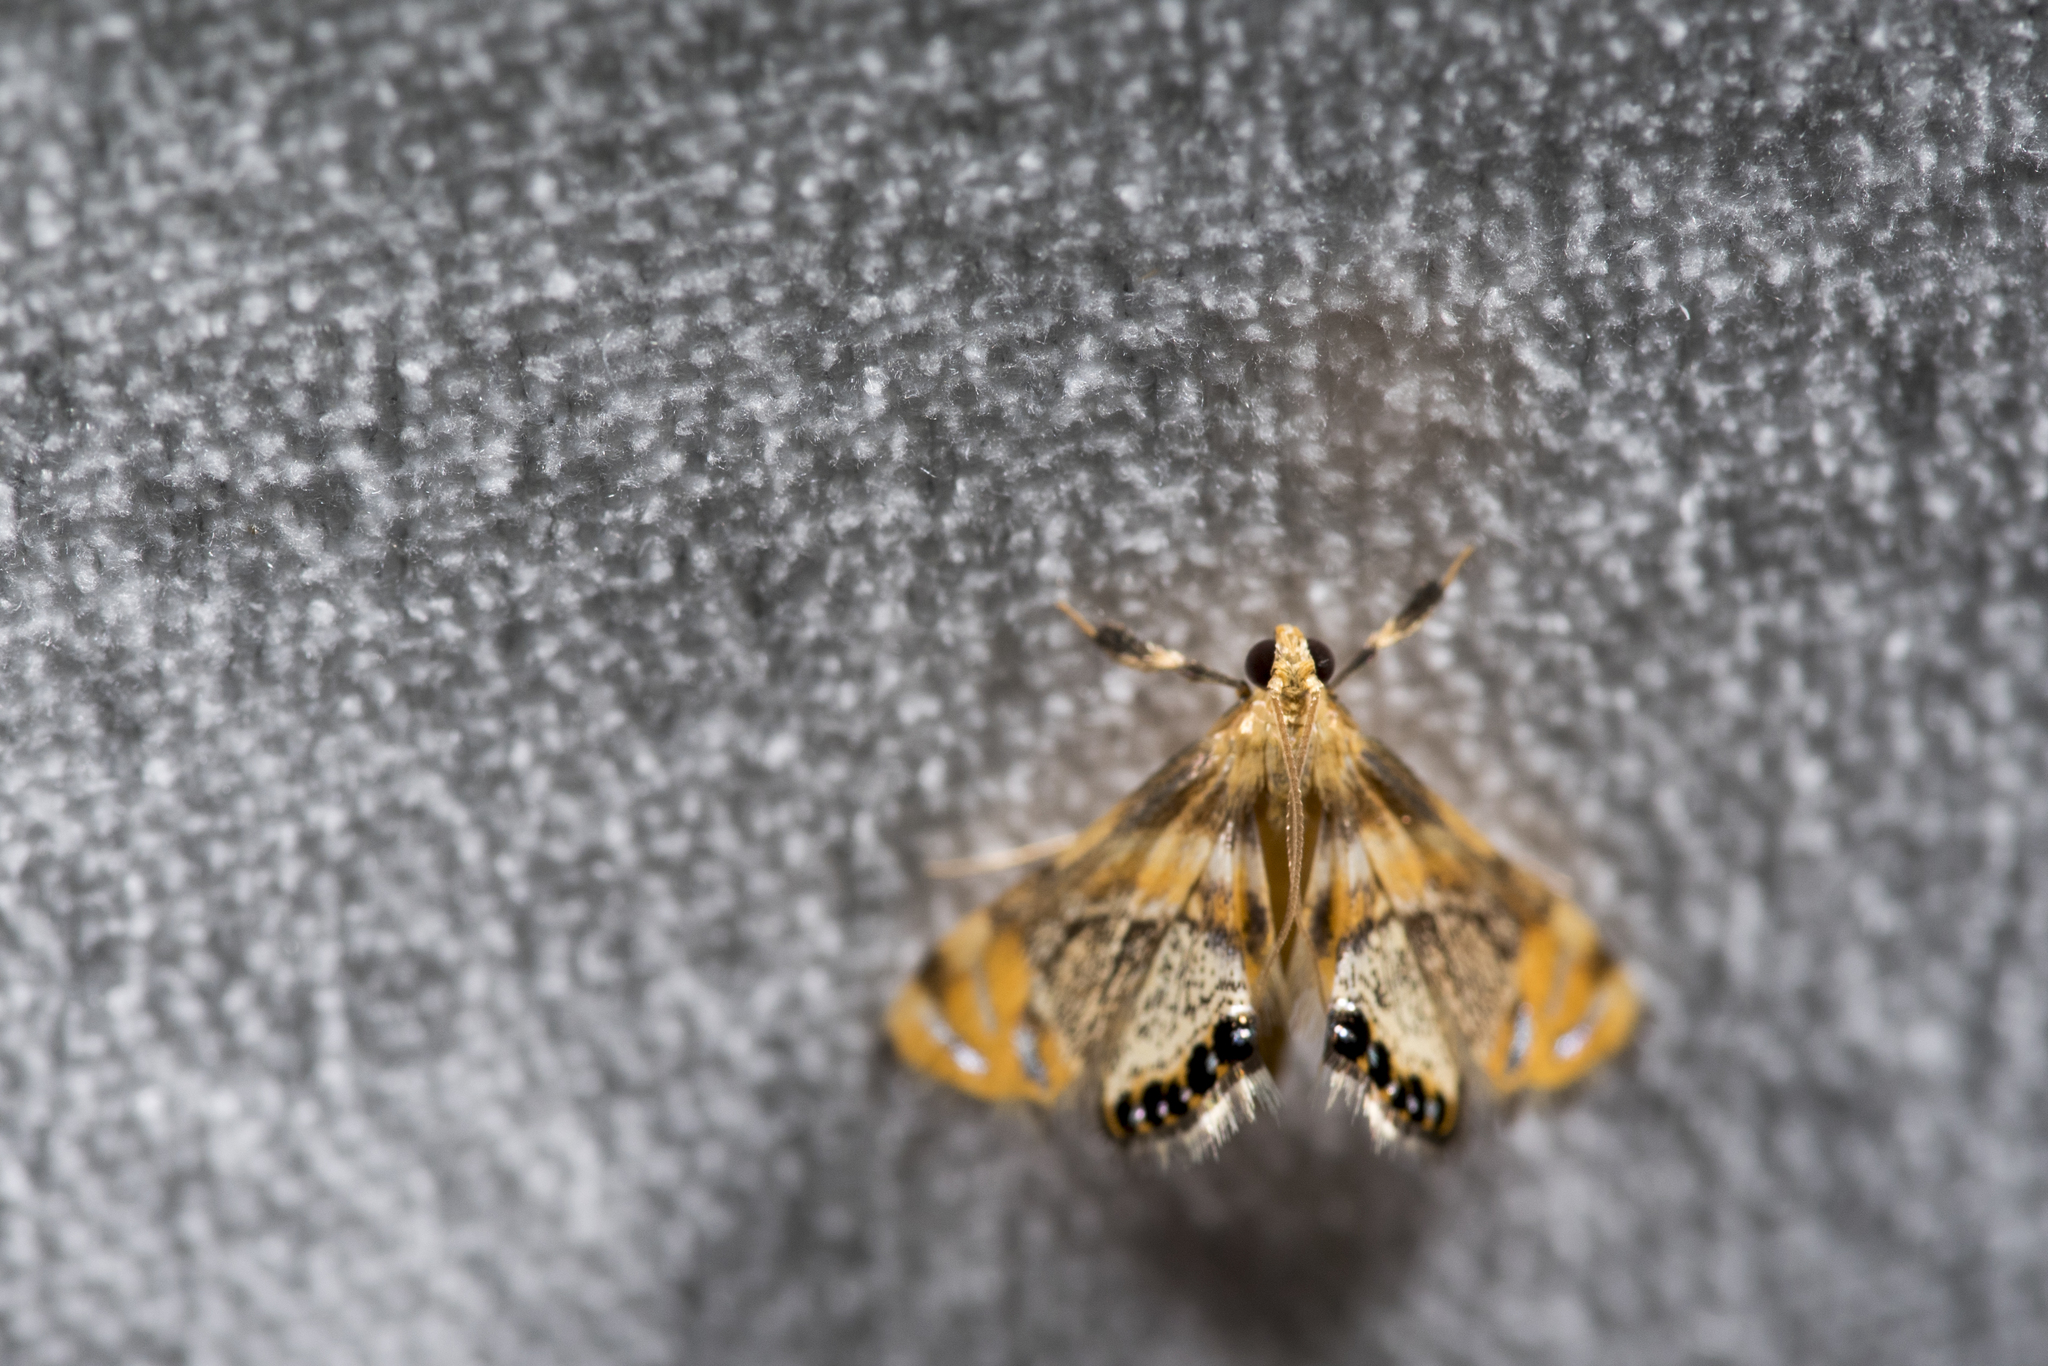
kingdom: Animalia
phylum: Arthropoda
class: Insecta
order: Lepidoptera
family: Crambidae
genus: Nymphicula
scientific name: Nymphicula yoshiyasui
